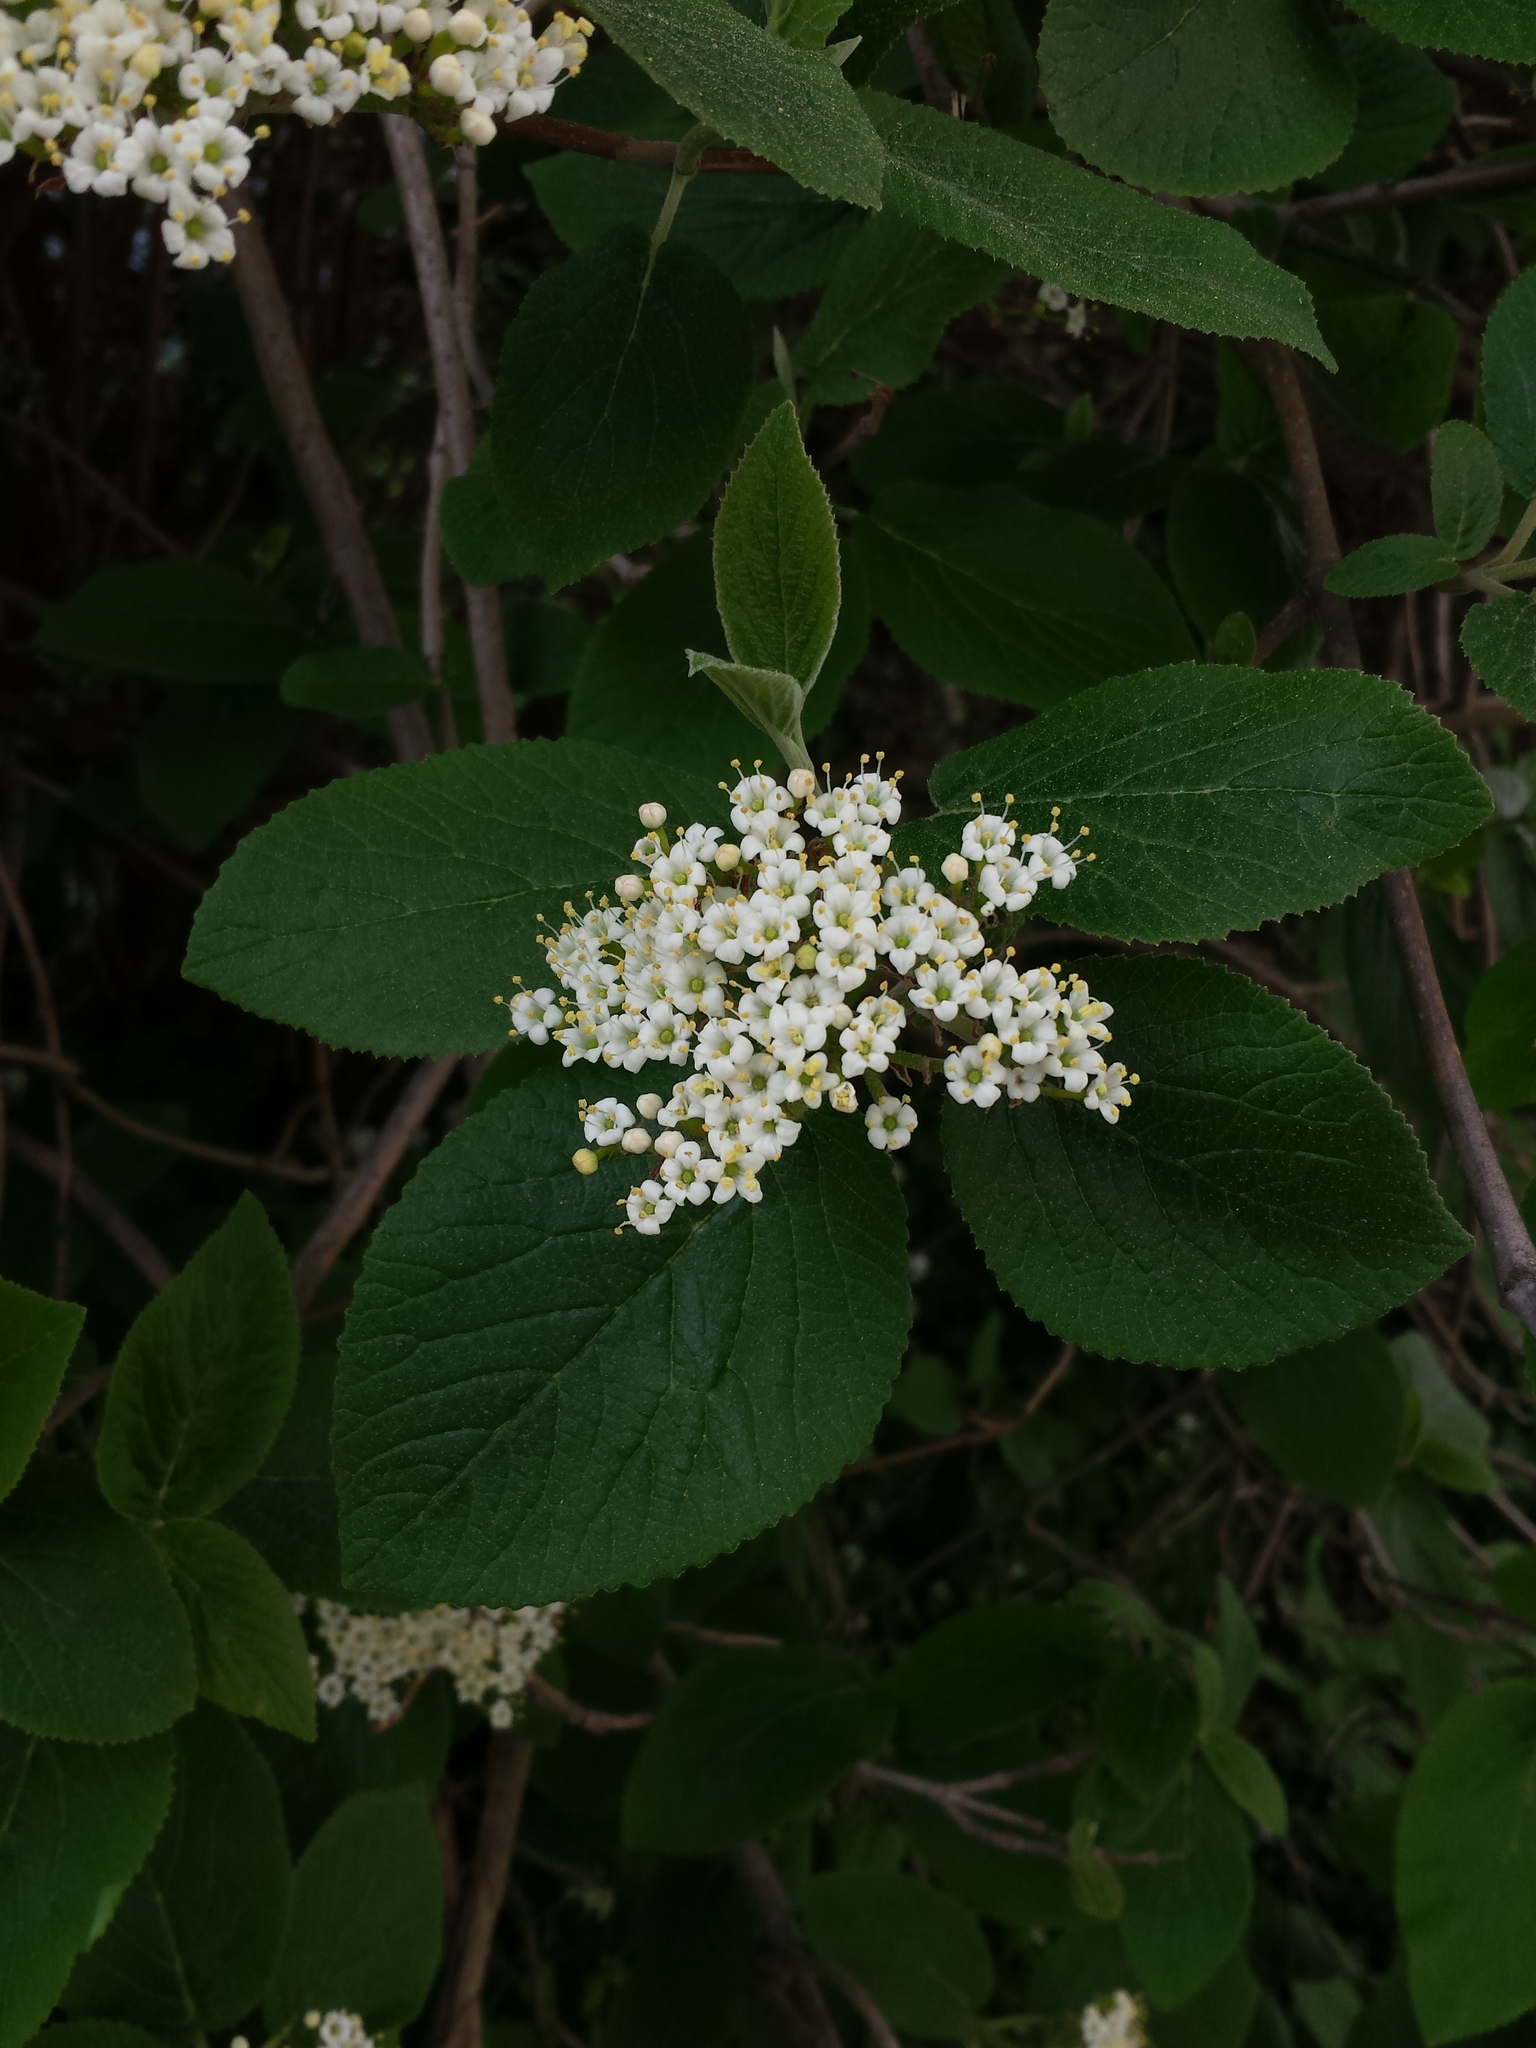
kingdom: Plantae
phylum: Tracheophyta
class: Magnoliopsida
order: Dipsacales
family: Viburnaceae
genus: Viburnum
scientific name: Viburnum lantana
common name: Wayfaring tree
